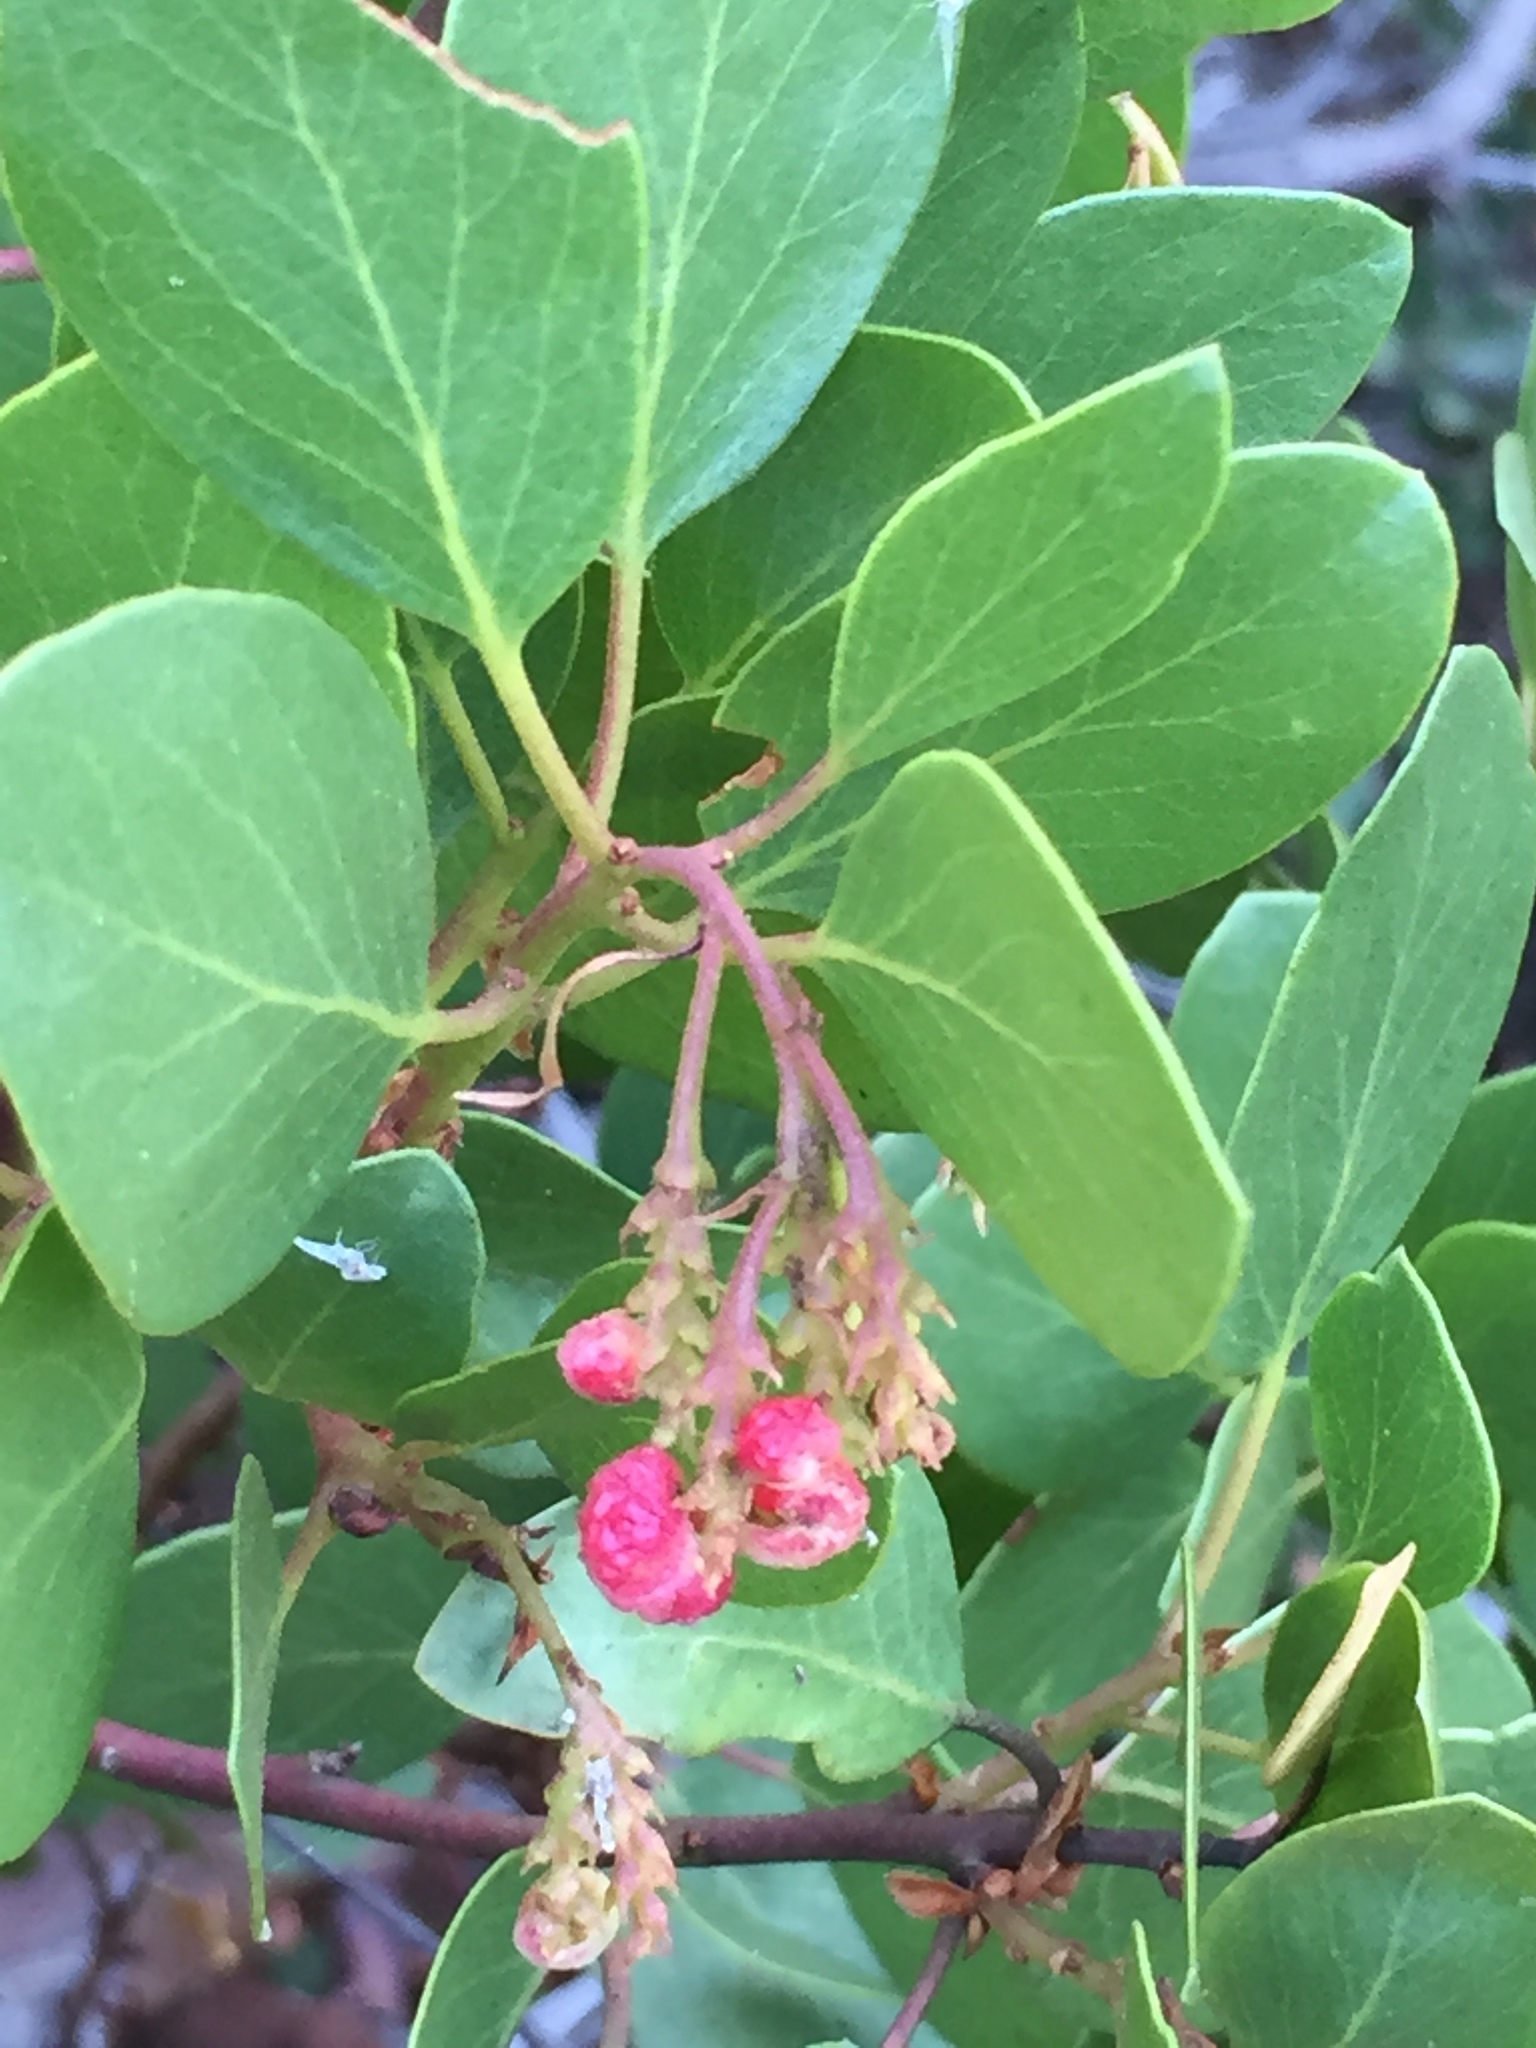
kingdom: Plantae
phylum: Tracheophyta
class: Magnoliopsida
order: Ericales
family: Ericaceae
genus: Arctostaphylos
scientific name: Arctostaphylos patula
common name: Green-leaf manzanita
